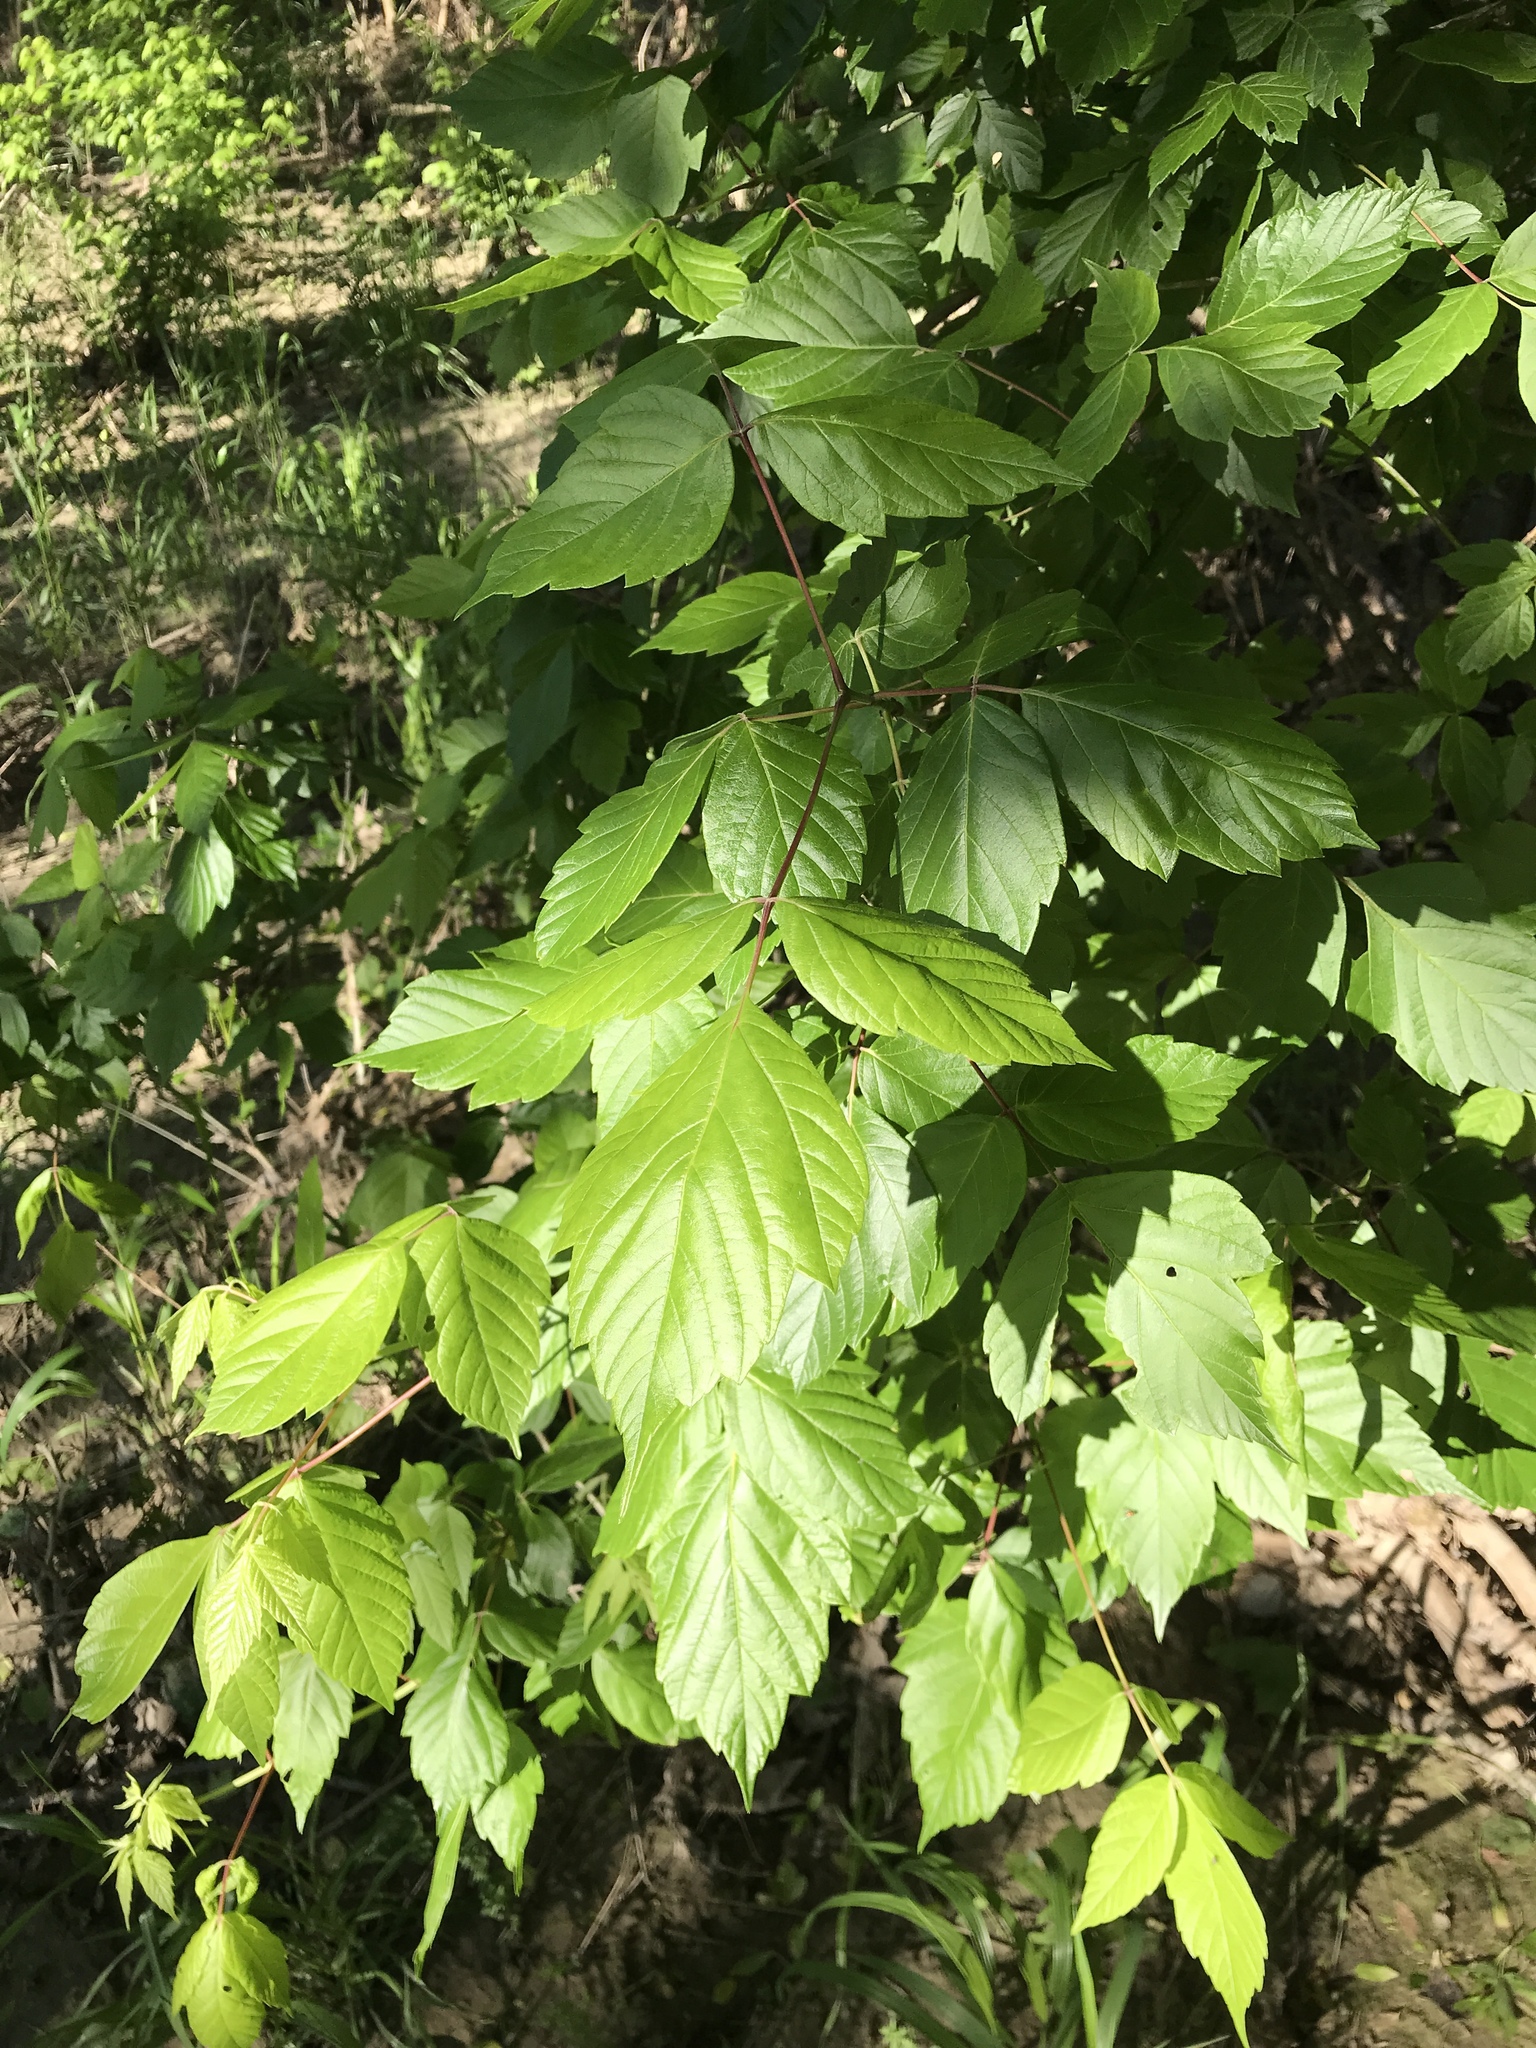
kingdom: Plantae
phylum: Tracheophyta
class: Magnoliopsida
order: Sapindales
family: Sapindaceae
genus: Acer
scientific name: Acer negundo
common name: Ashleaf maple
